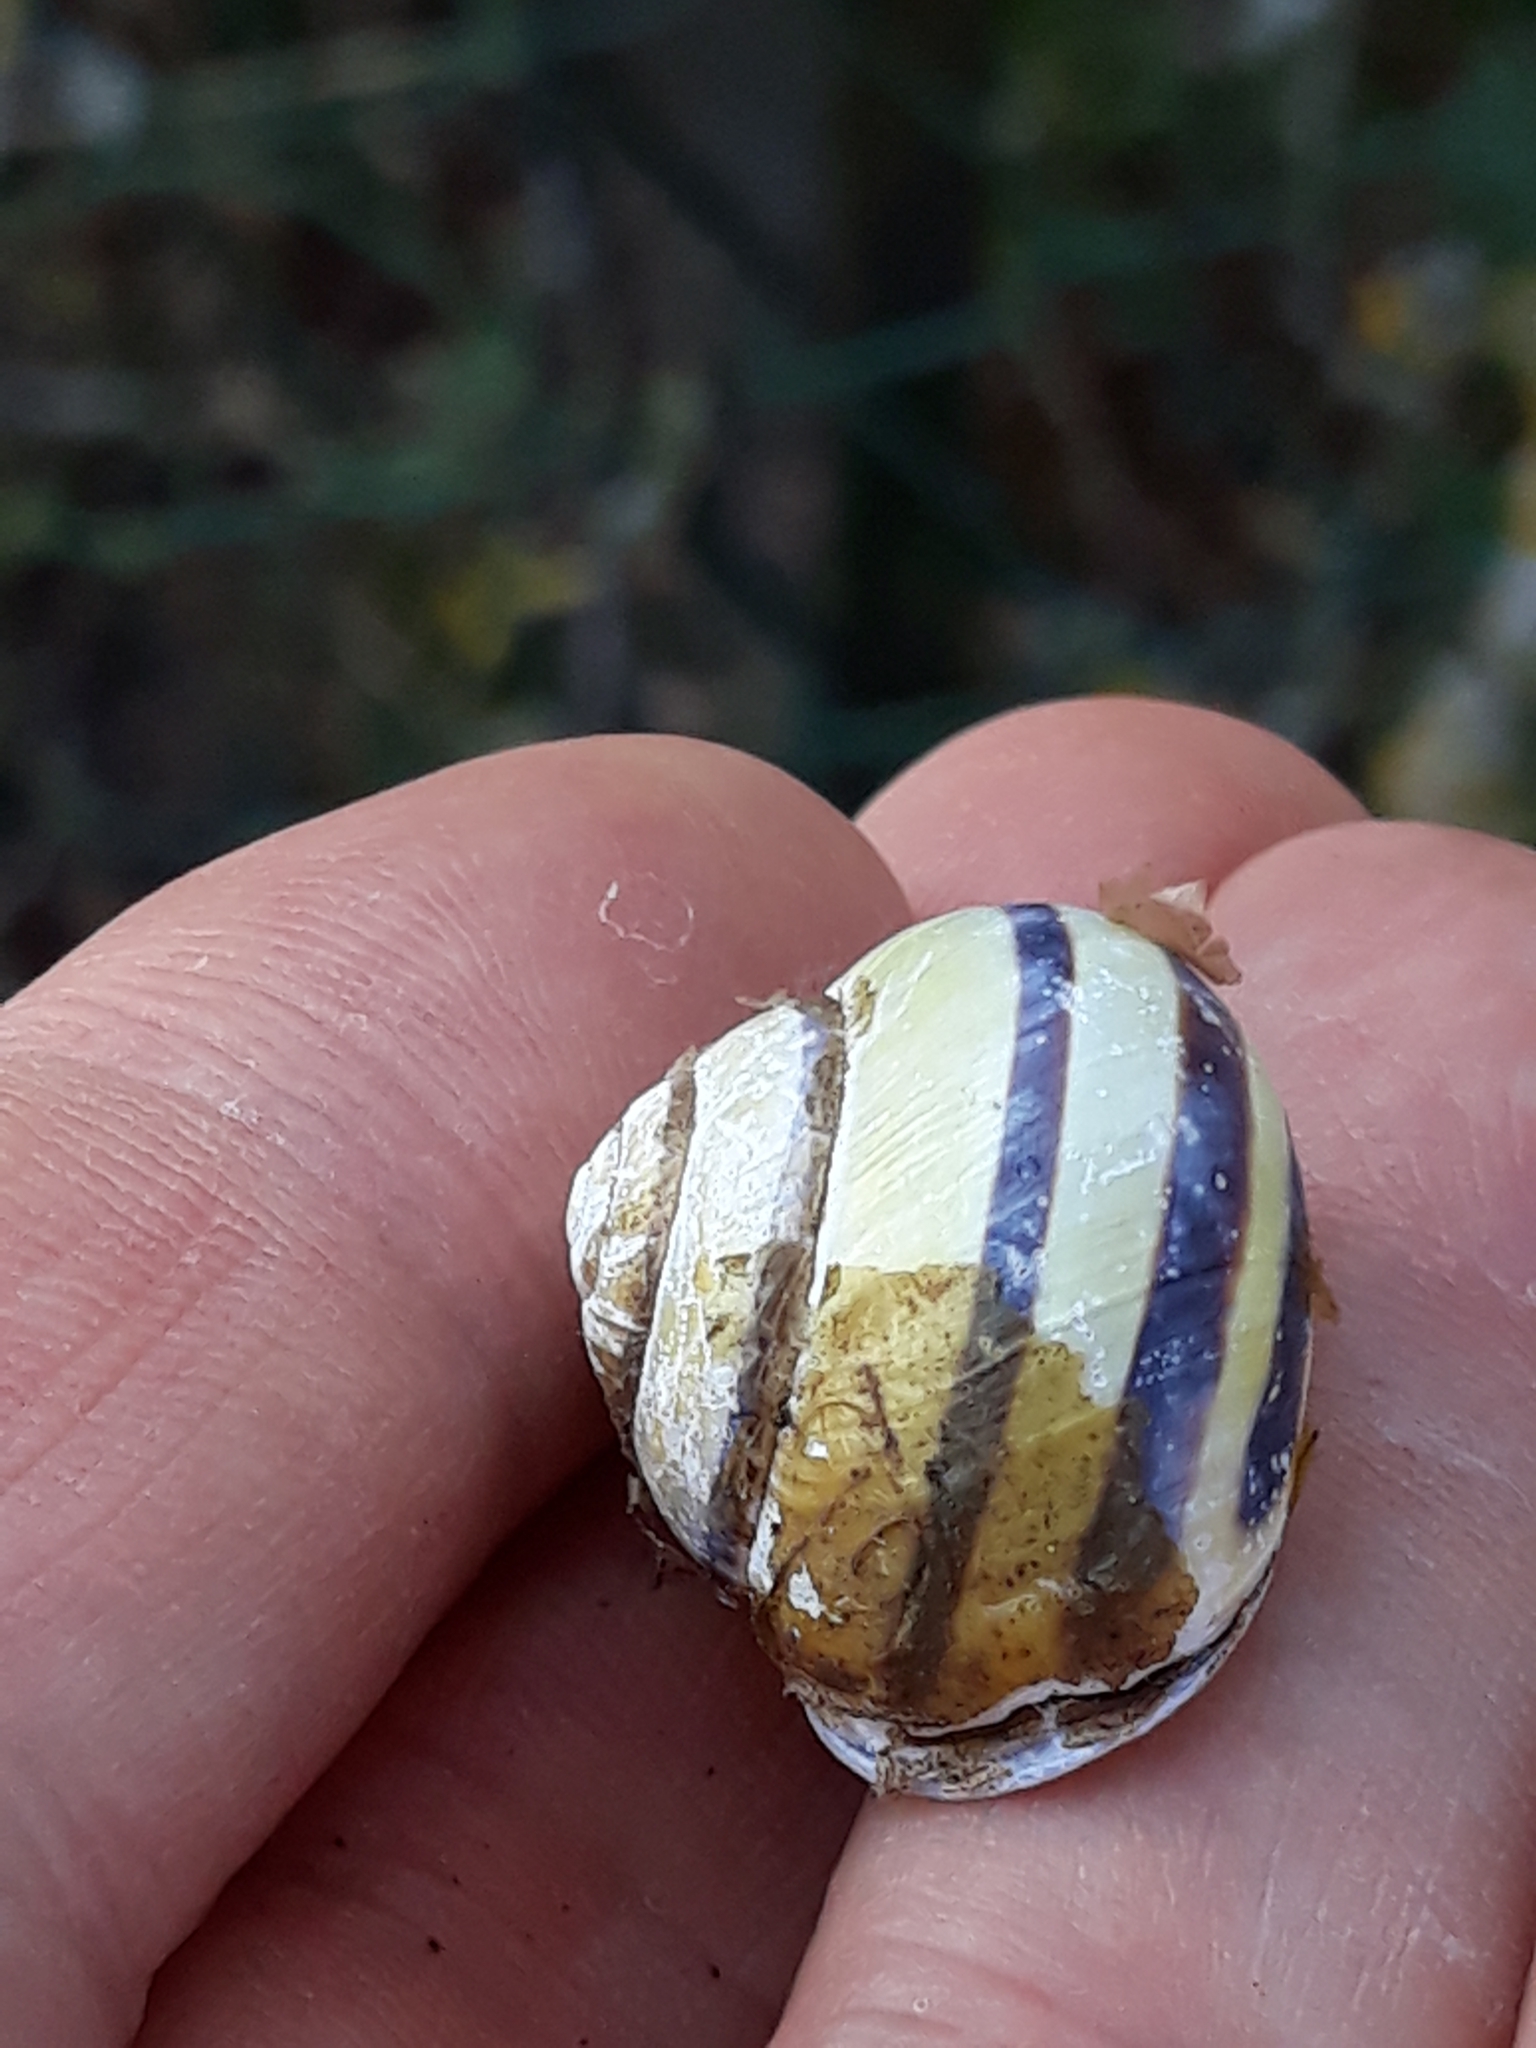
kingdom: Animalia
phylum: Mollusca
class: Gastropoda
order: Stylommatophora
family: Helicidae
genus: Cepaea
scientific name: Cepaea nemoralis
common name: Grovesnail
